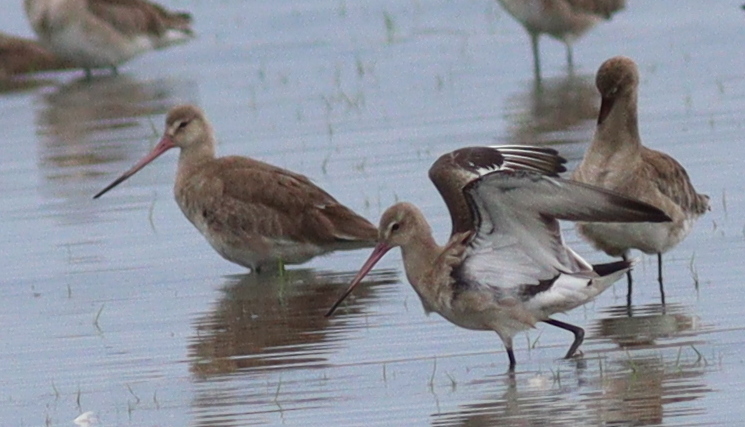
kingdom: Animalia
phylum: Chordata
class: Aves
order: Charadriiformes
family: Scolopacidae
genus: Limosa
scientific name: Limosa limosa
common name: Black-tailed godwit
